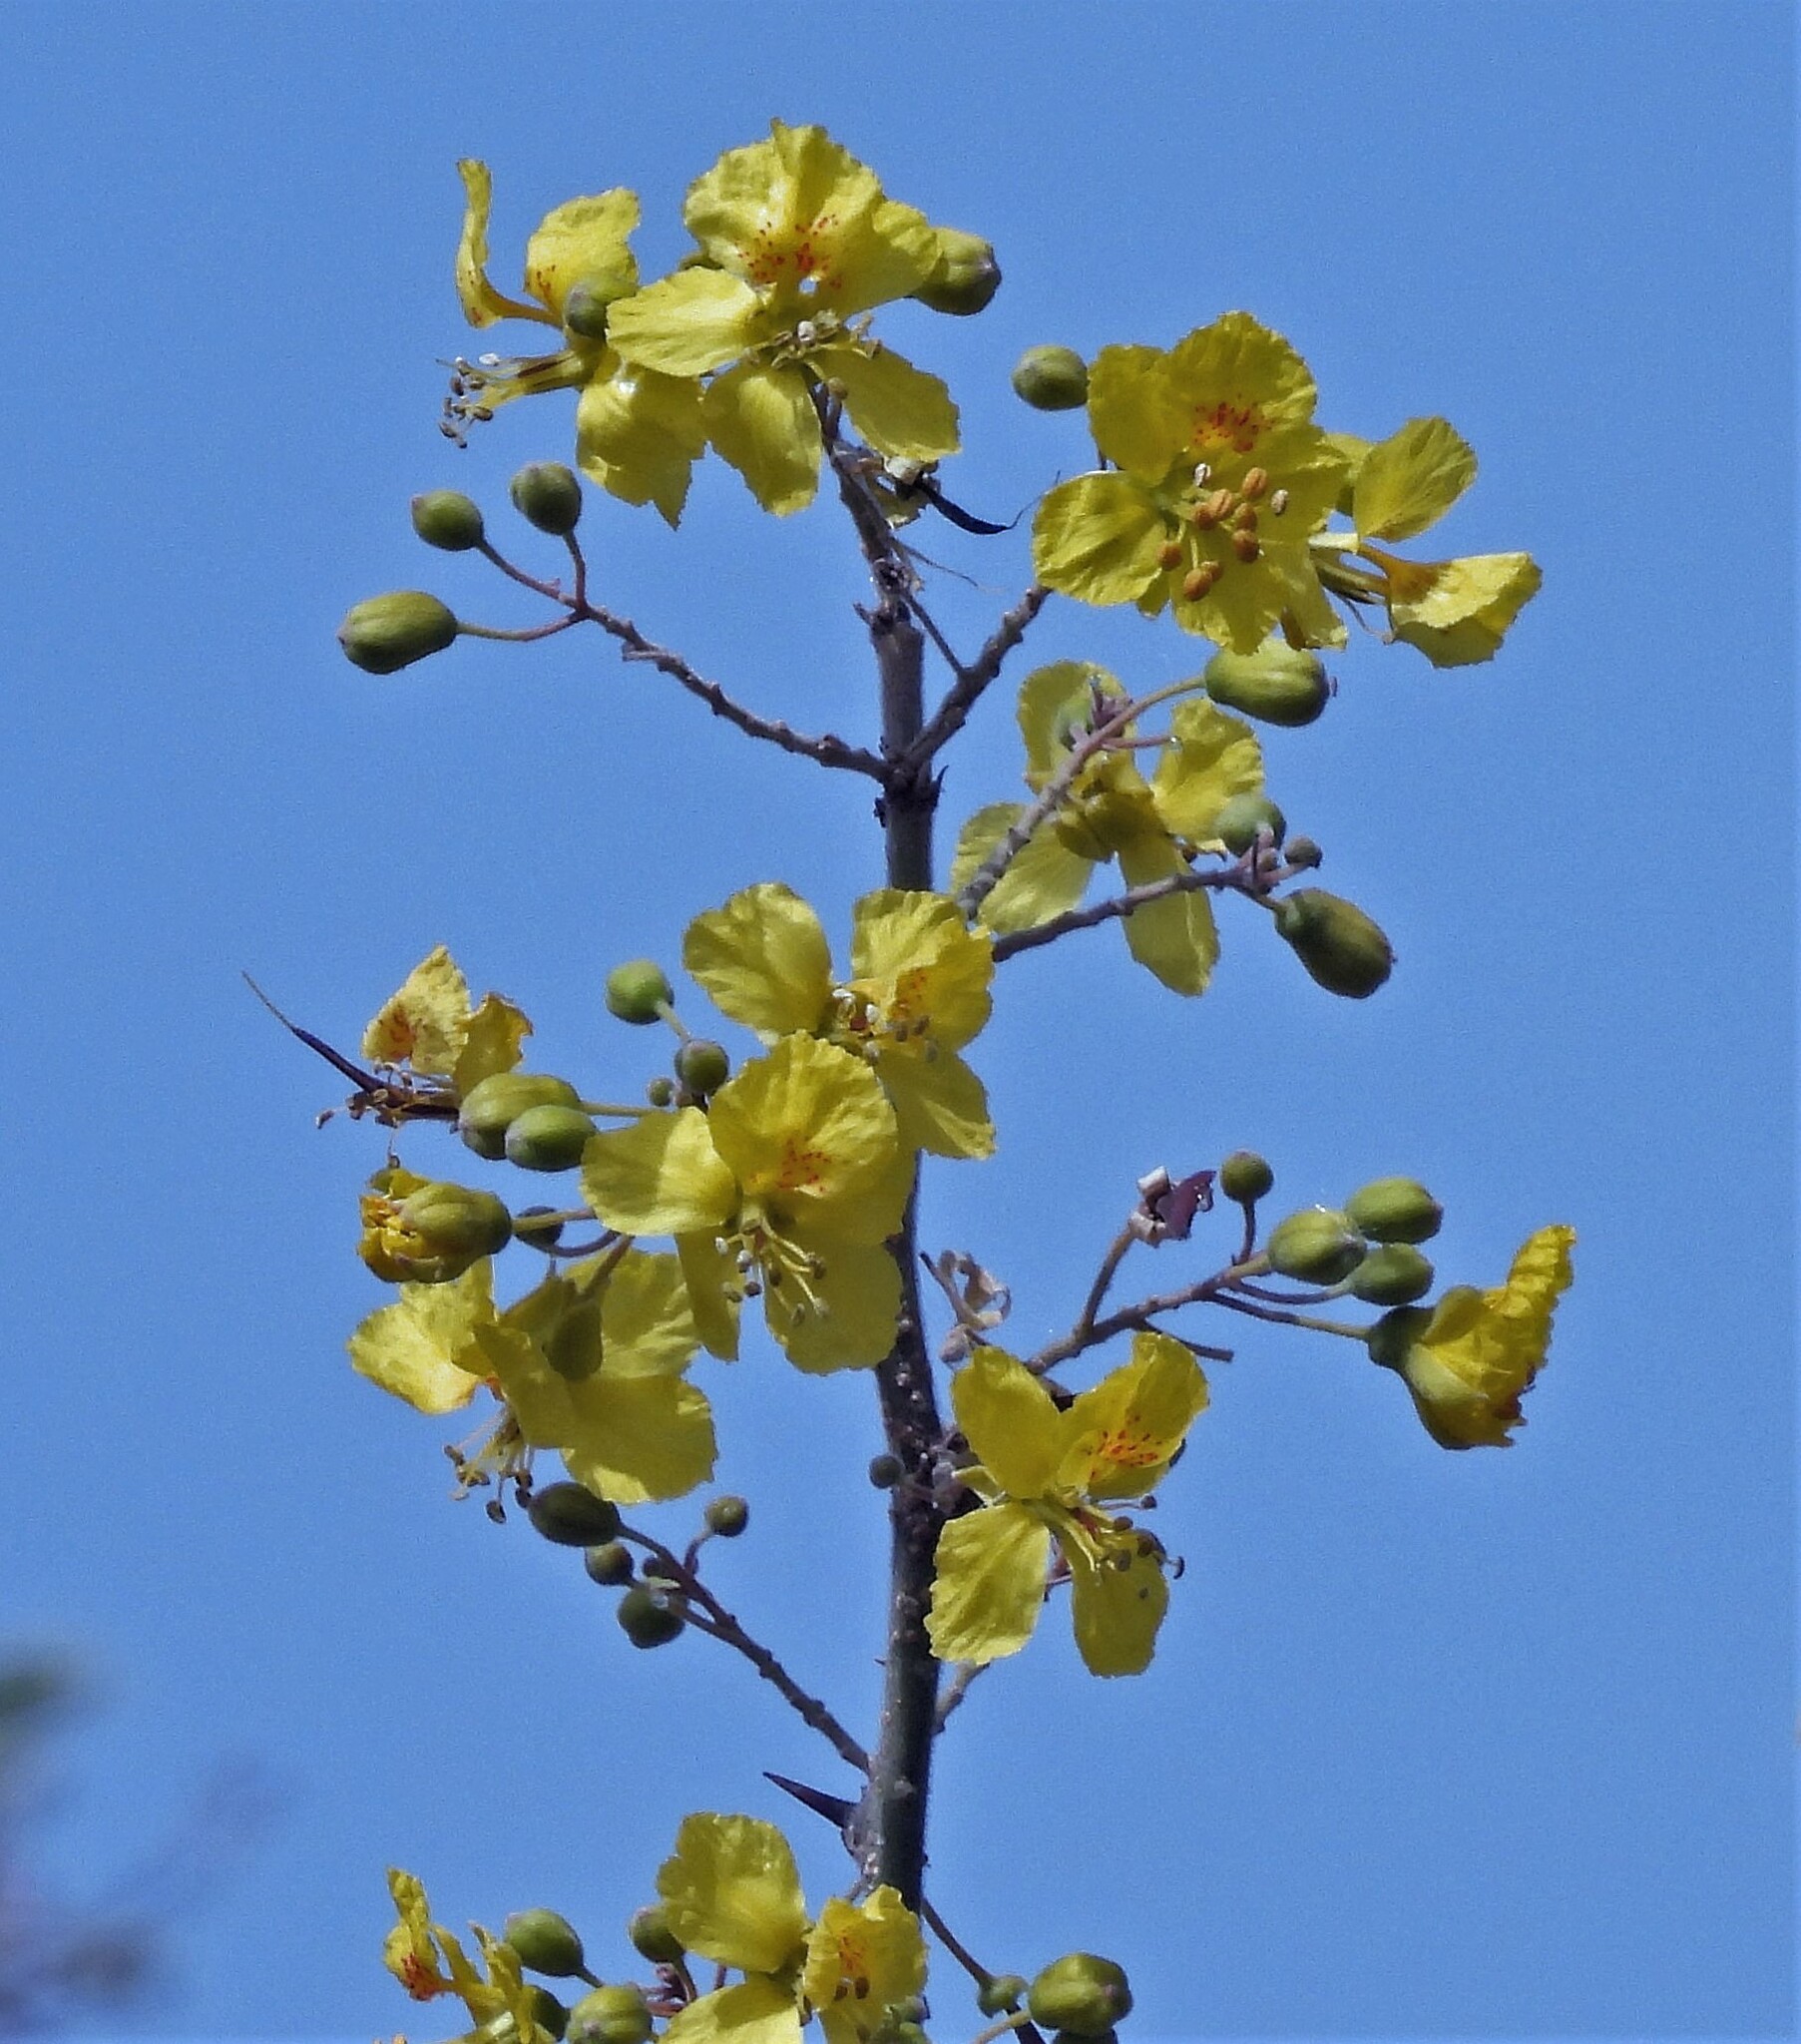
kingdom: Plantae
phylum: Tracheophyta
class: Magnoliopsida
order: Fabales
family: Fabaceae
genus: Parkinsonia
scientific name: Parkinsonia praecox
